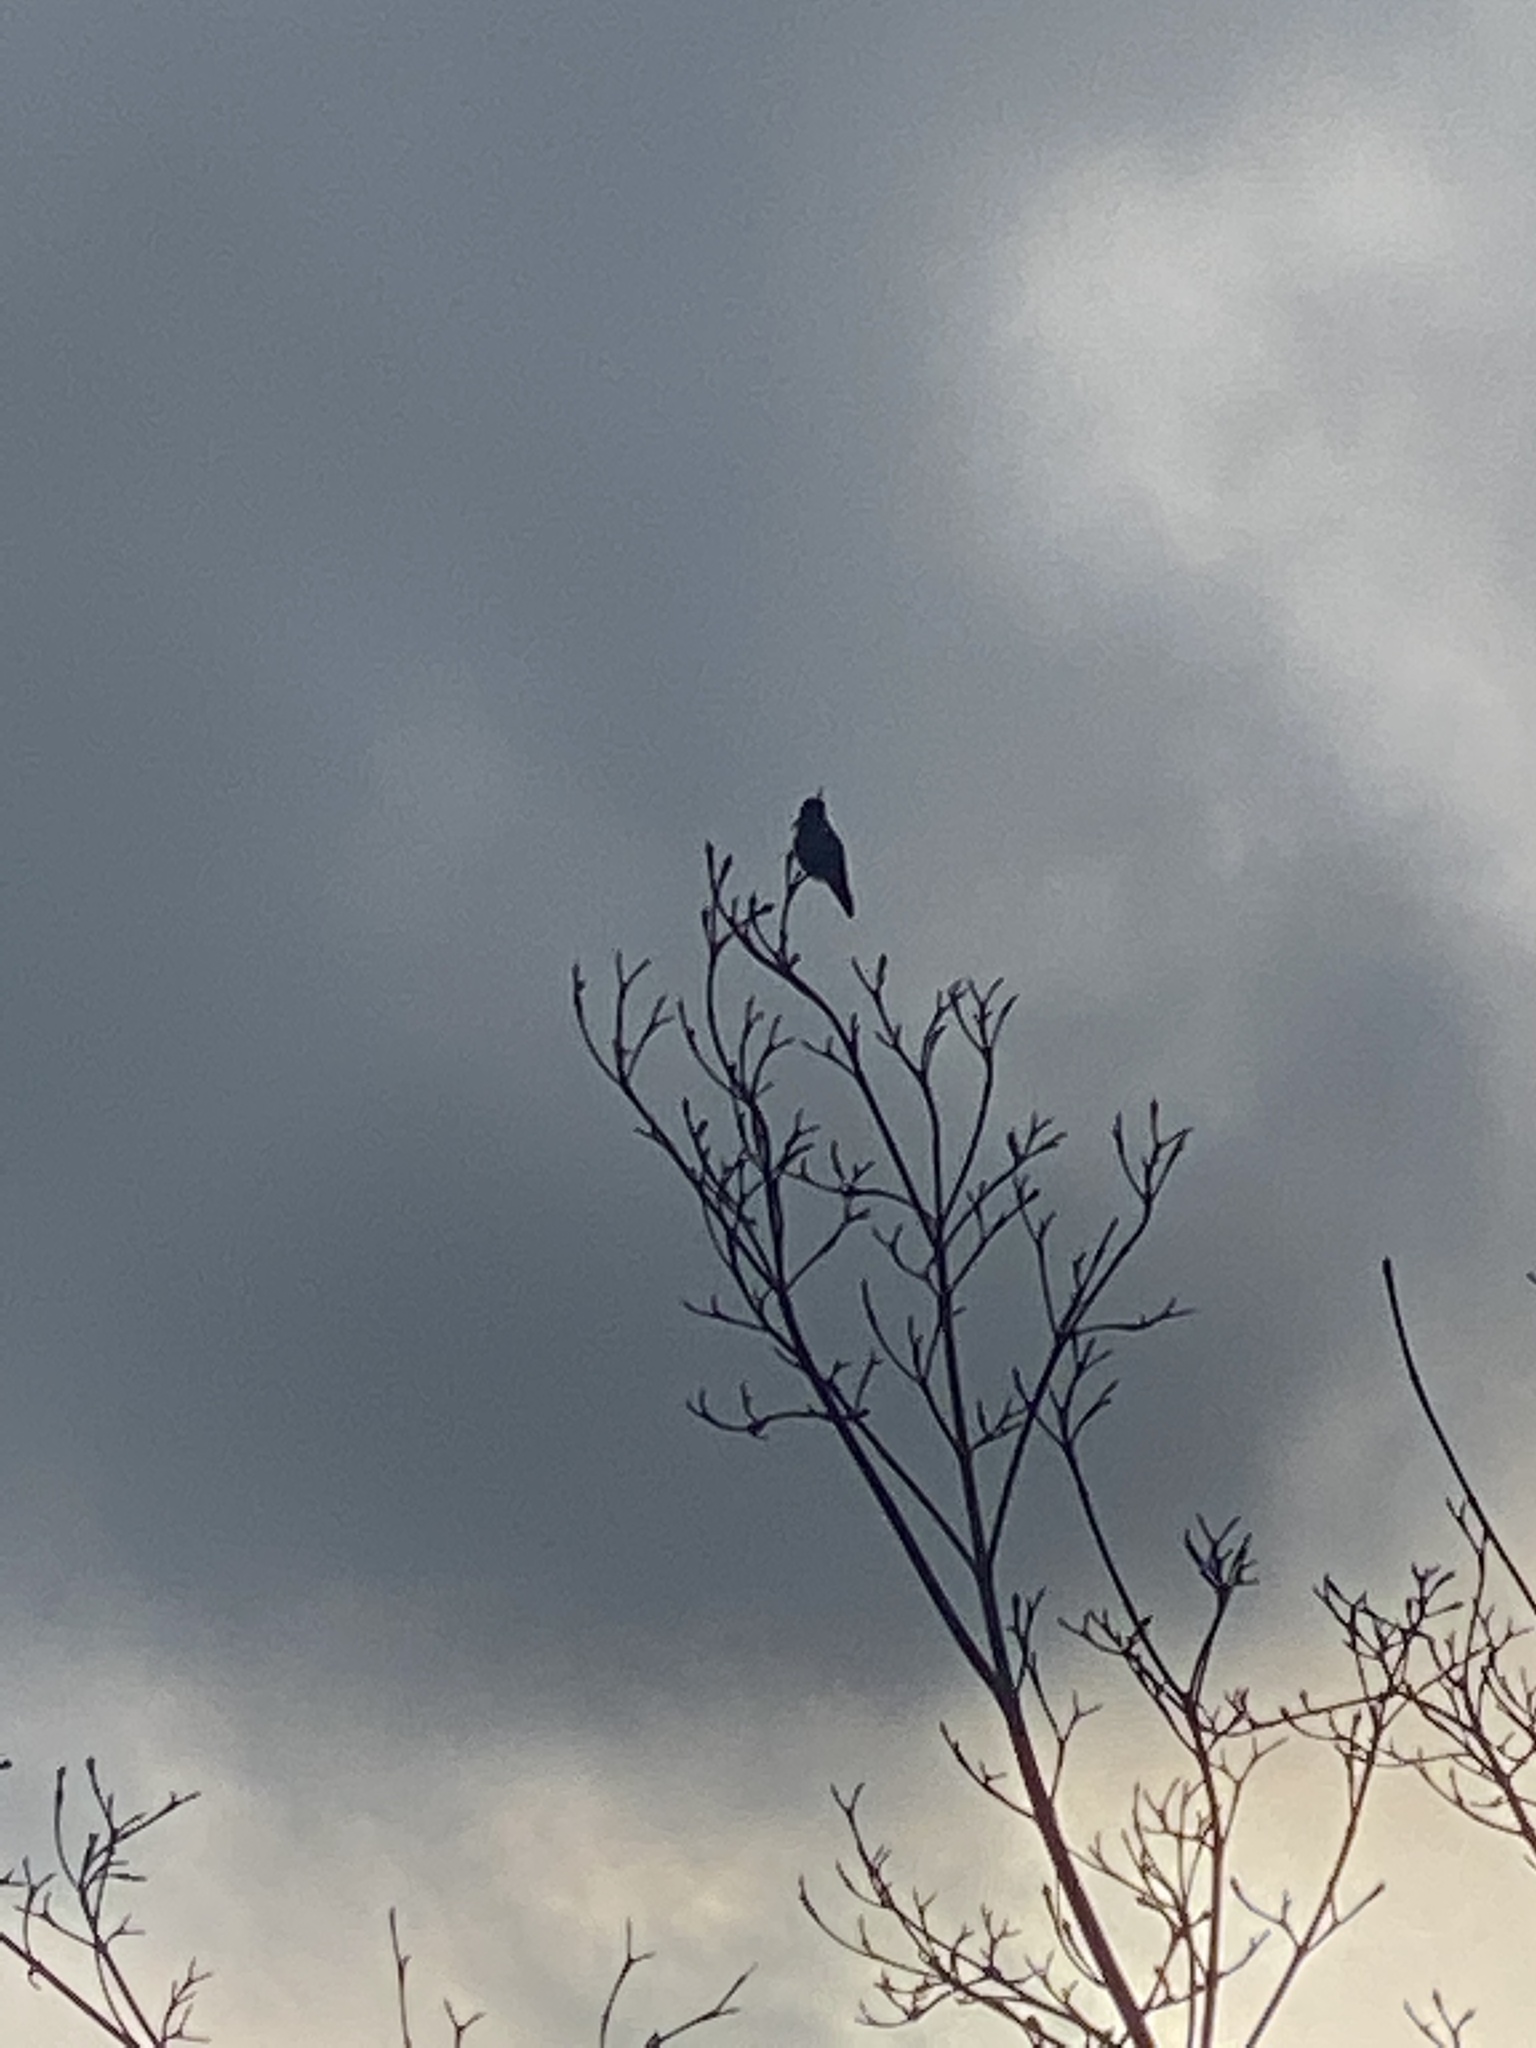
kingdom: Animalia
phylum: Chordata
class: Aves
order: Apodiformes
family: Trochilidae
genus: Calypte
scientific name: Calypte anna
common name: Anna's hummingbird
